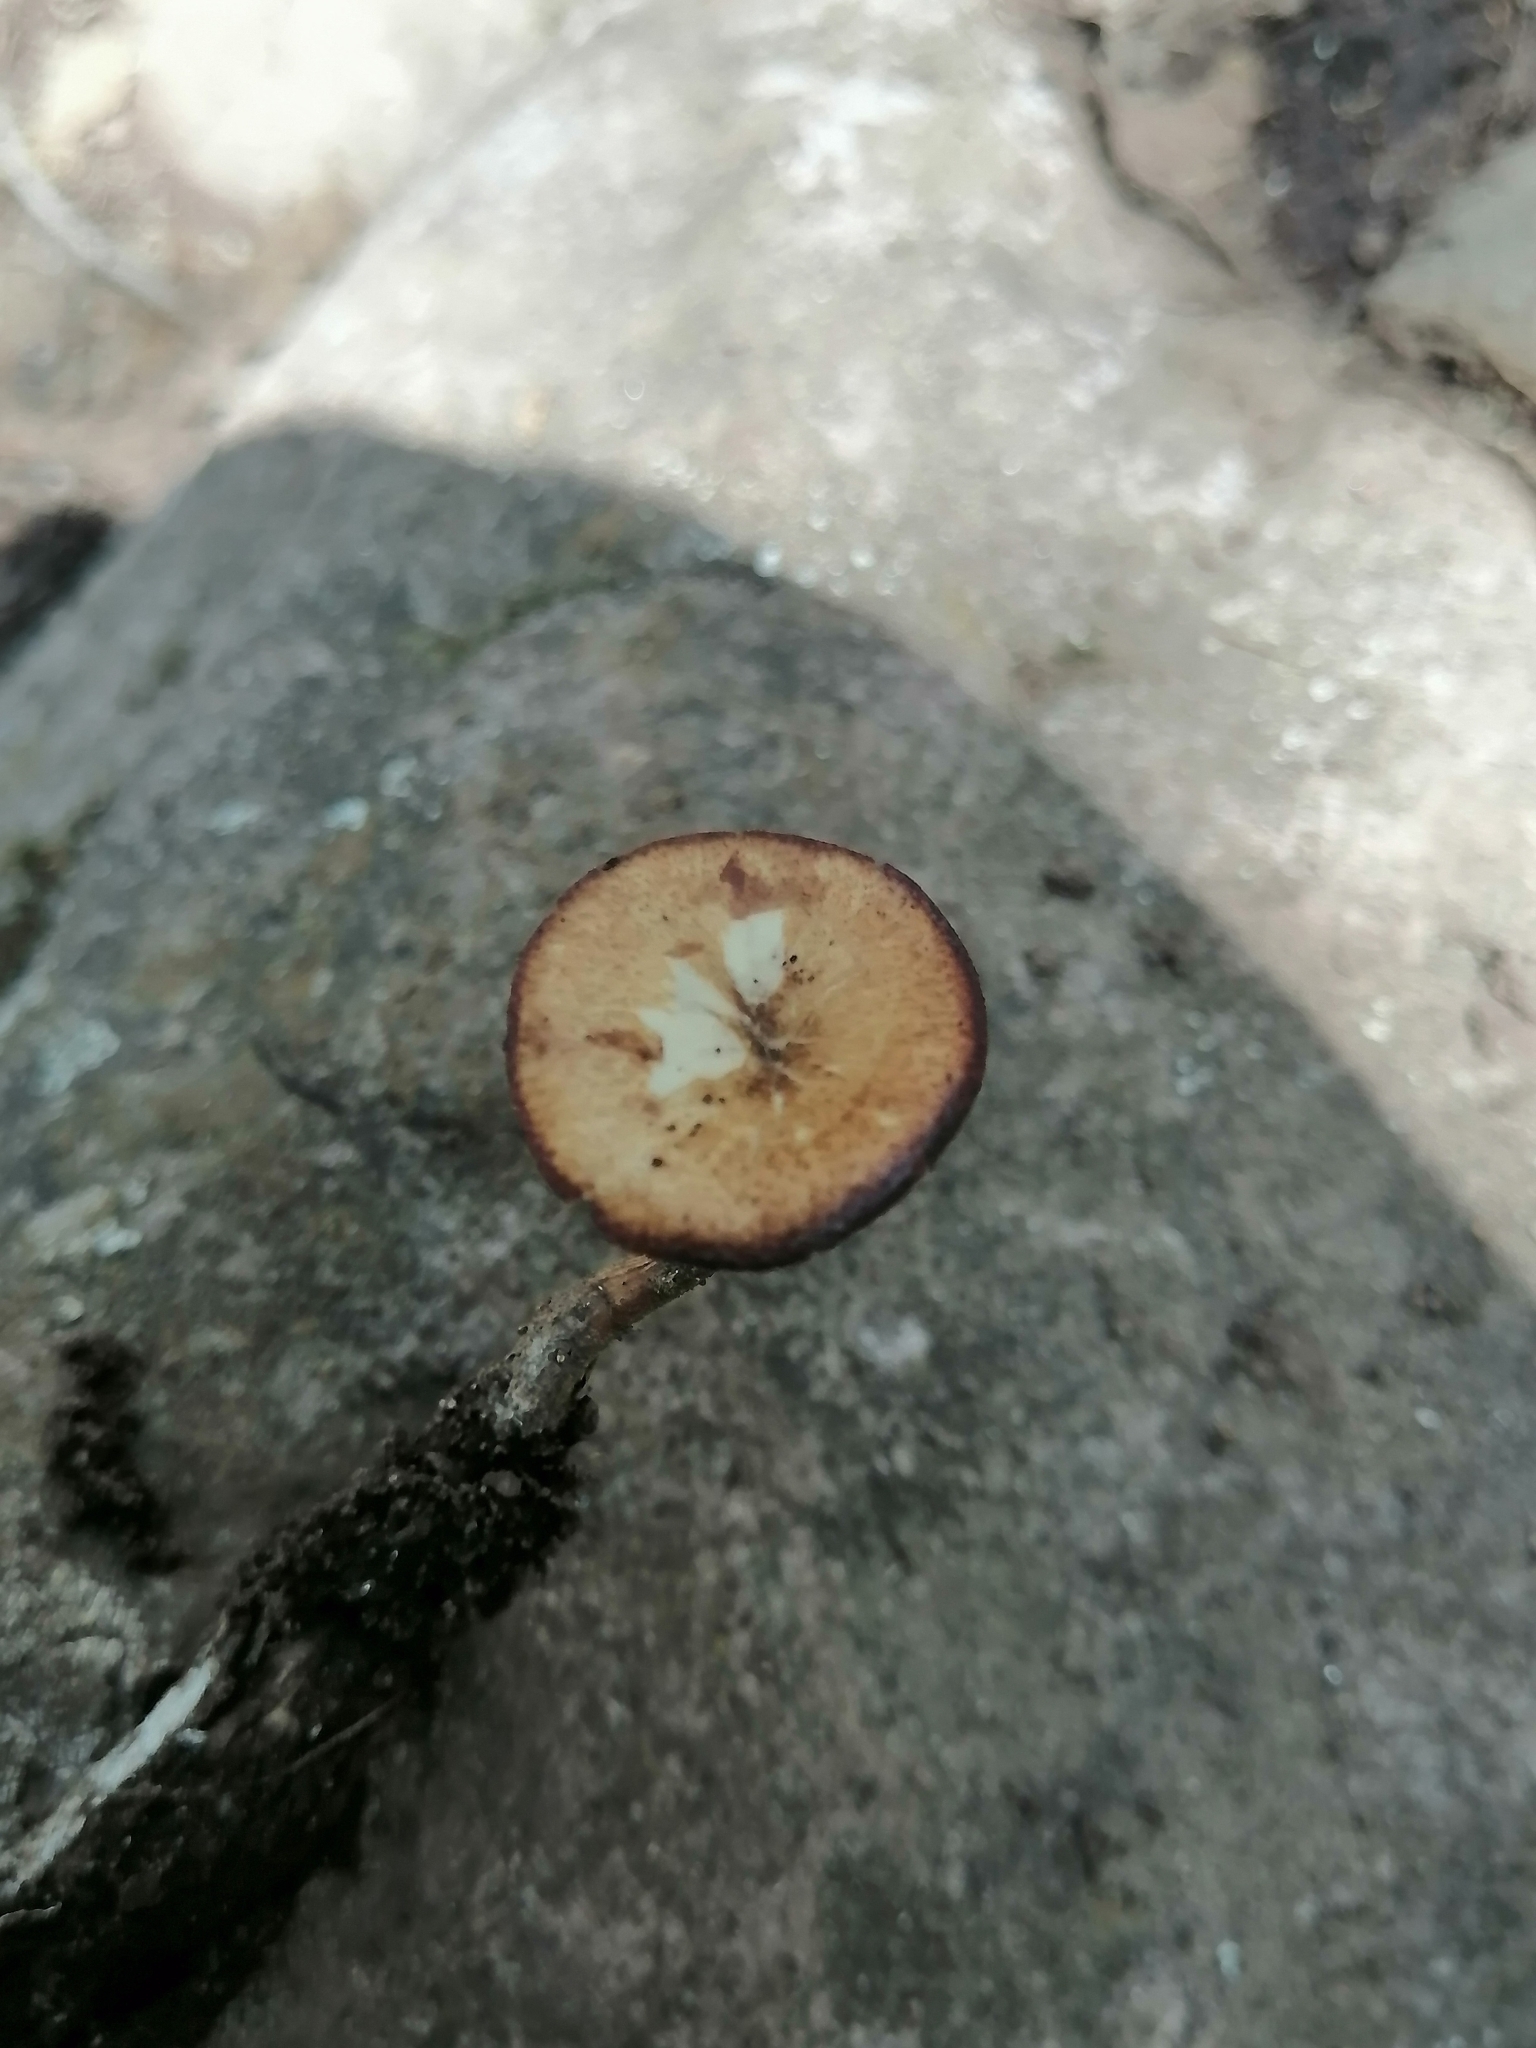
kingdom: Fungi
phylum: Basidiomycota
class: Agaricomycetes
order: Polyporales
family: Polyporaceae
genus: Lentinus
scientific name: Lentinus arcularius
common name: Spring polypore
